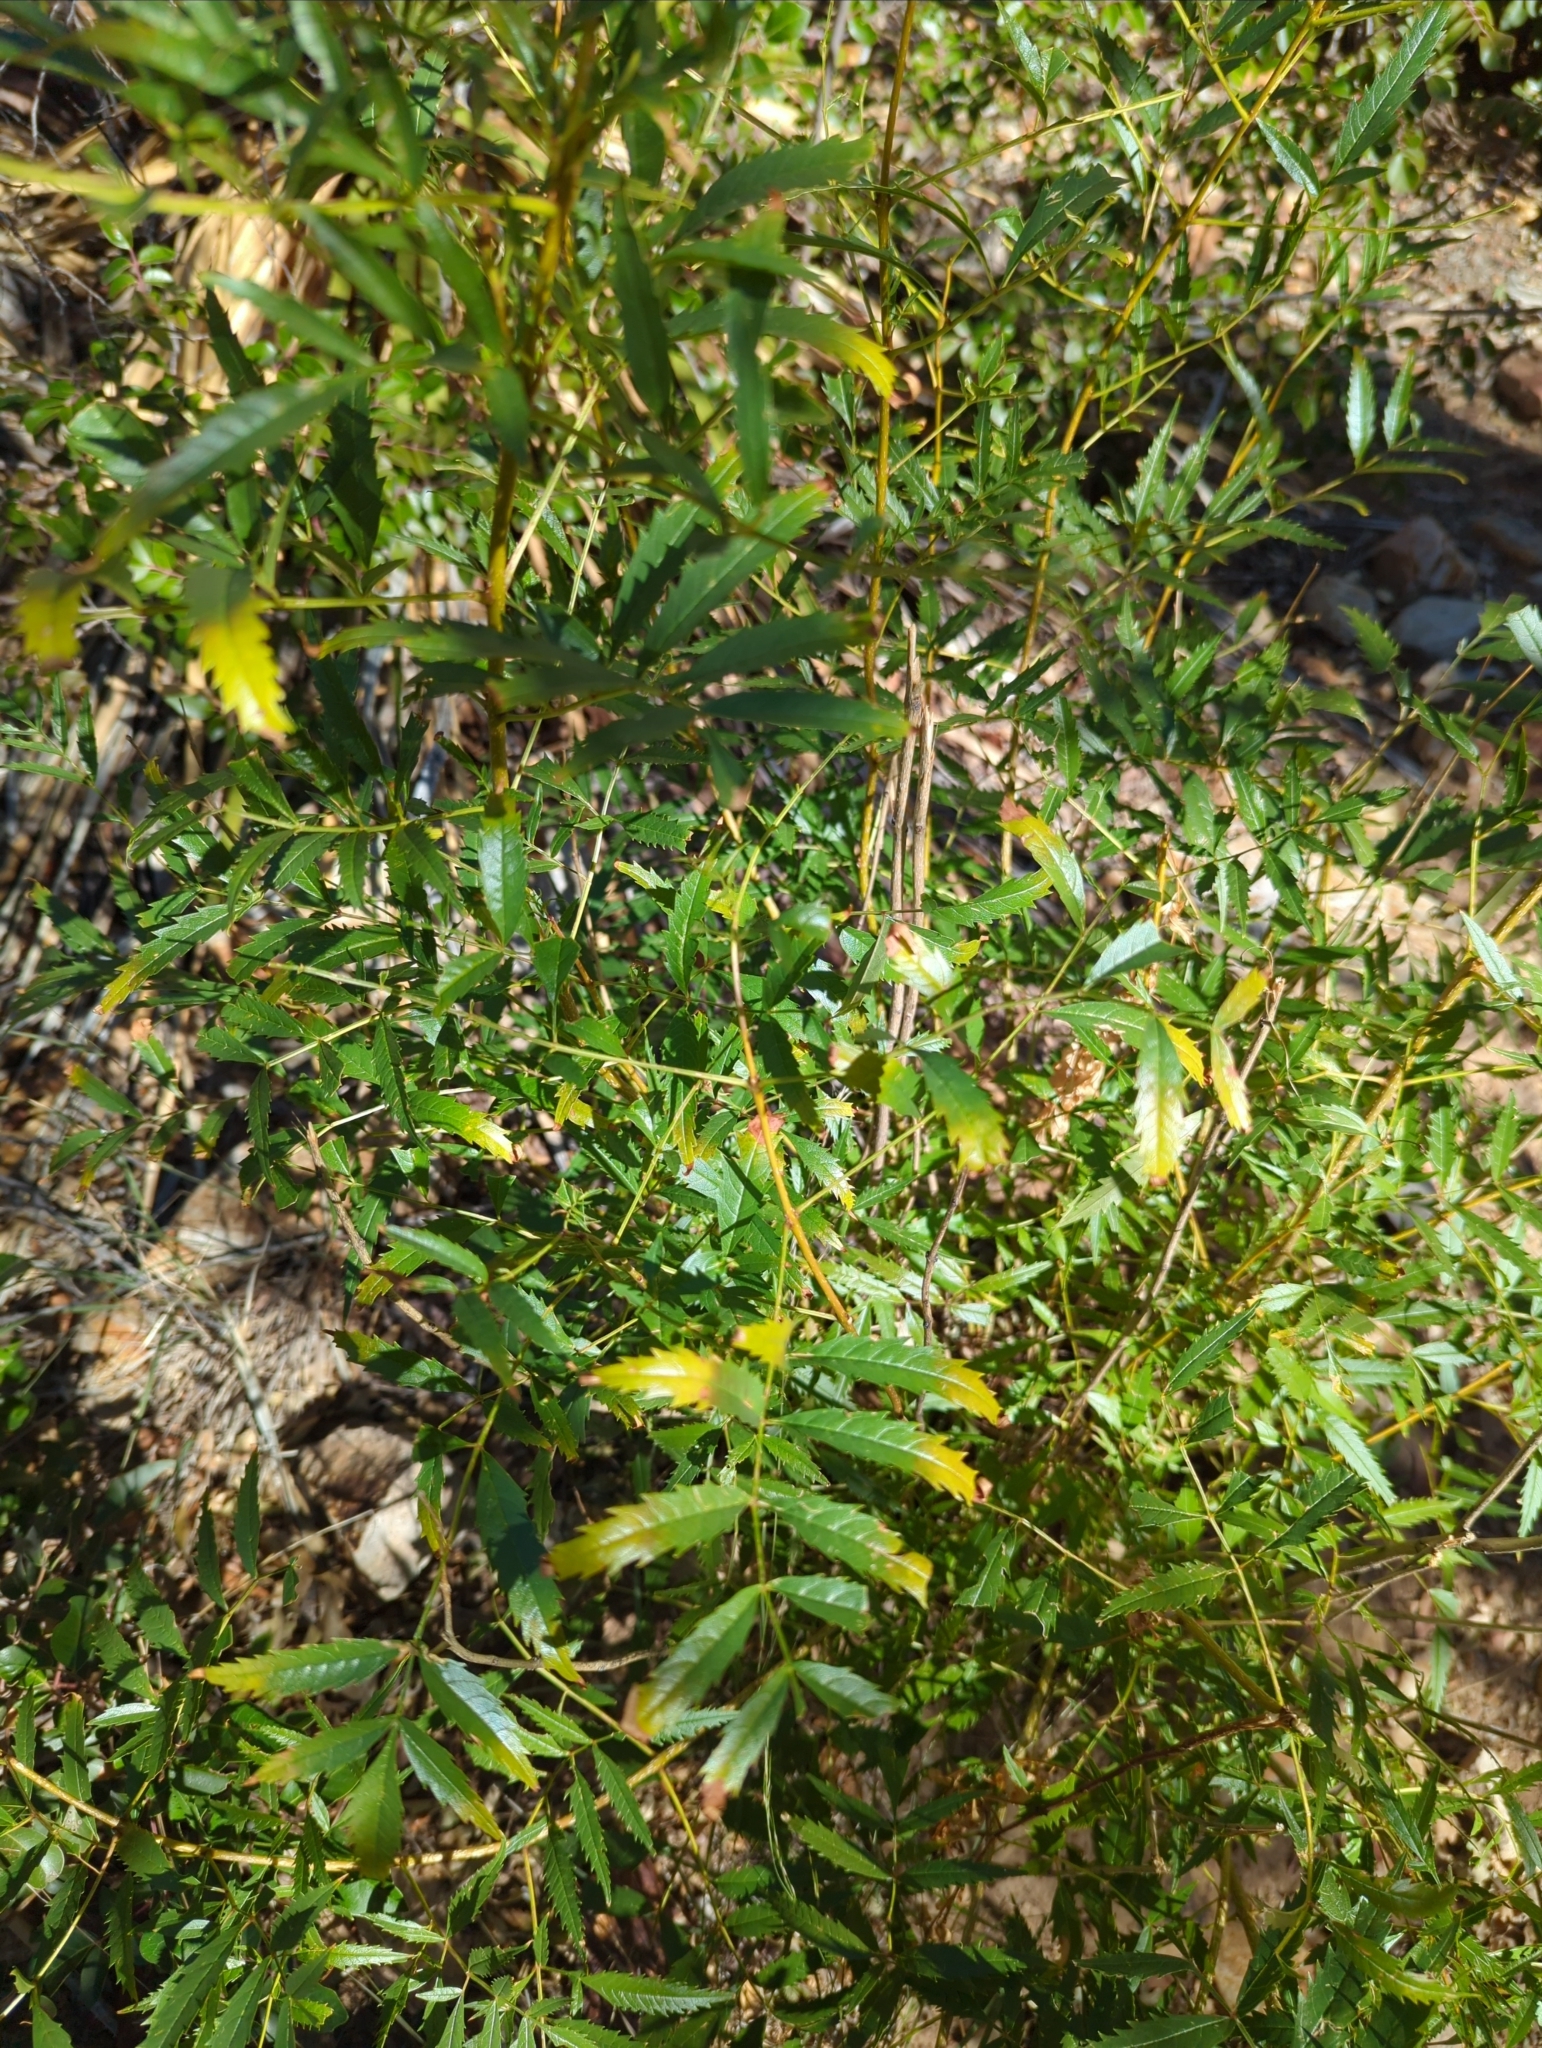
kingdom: Plantae
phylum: Tracheophyta
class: Magnoliopsida
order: Lamiales
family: Bignoniaceae
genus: Tecoma
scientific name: Tecoma stans
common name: Yellow trumpetbush
